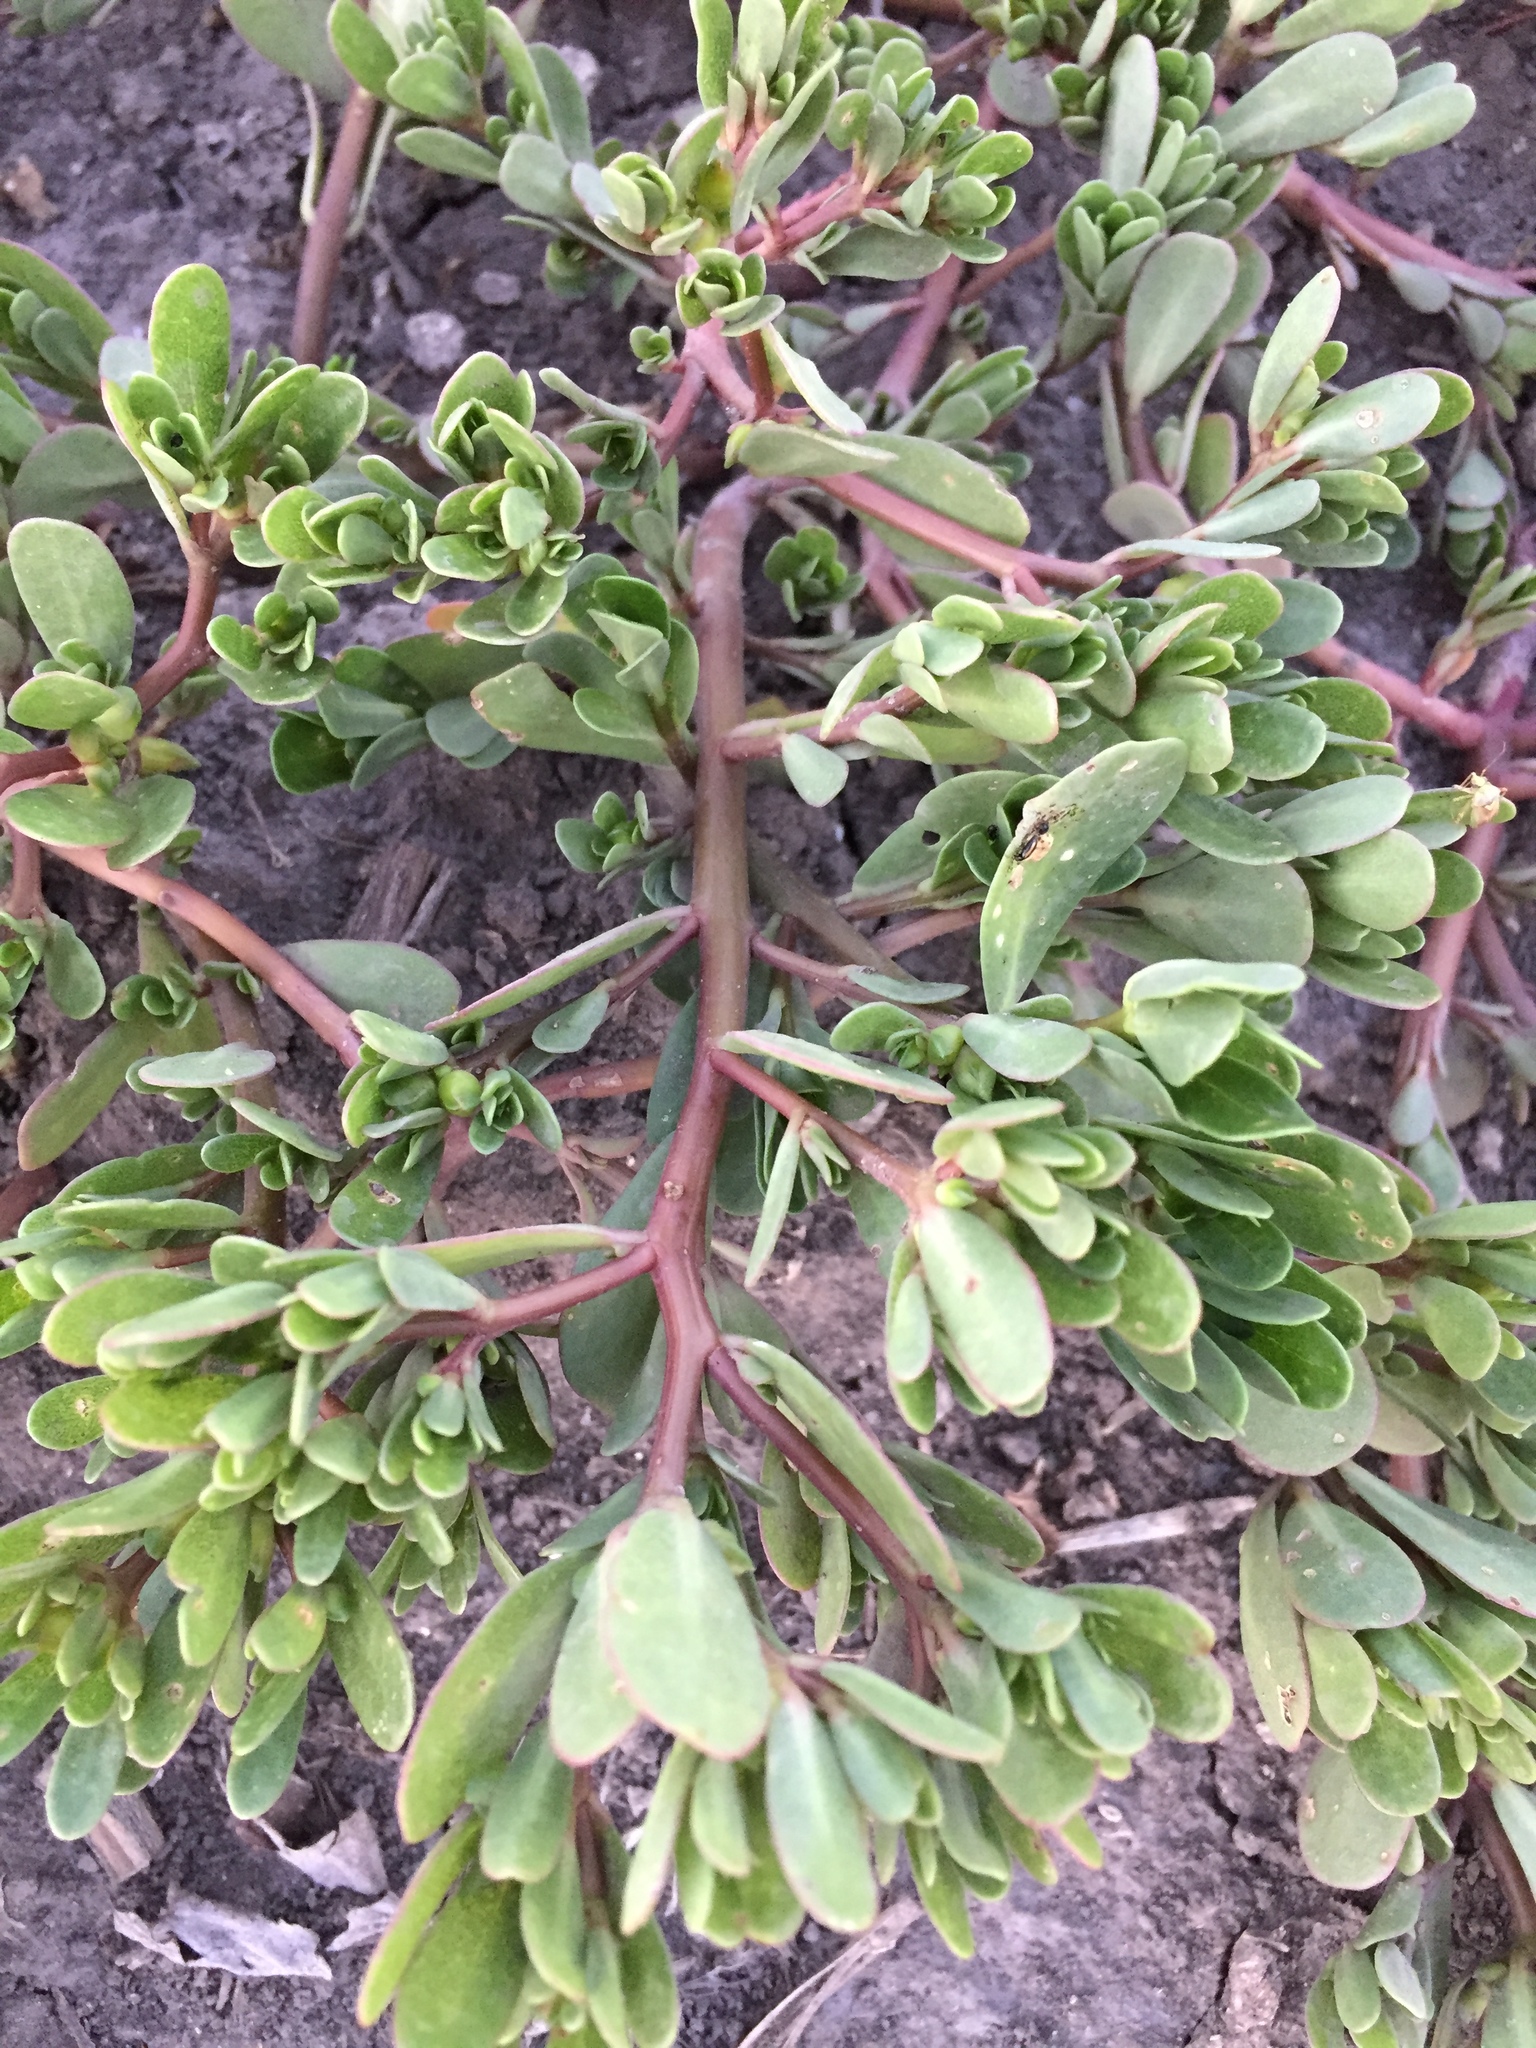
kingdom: Plantae
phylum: Tracheophyta
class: Magnoliopsida
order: Caryophyllales
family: Portulacaceae
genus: Portulaca
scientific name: Portulaca oleracea
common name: Common purslane
